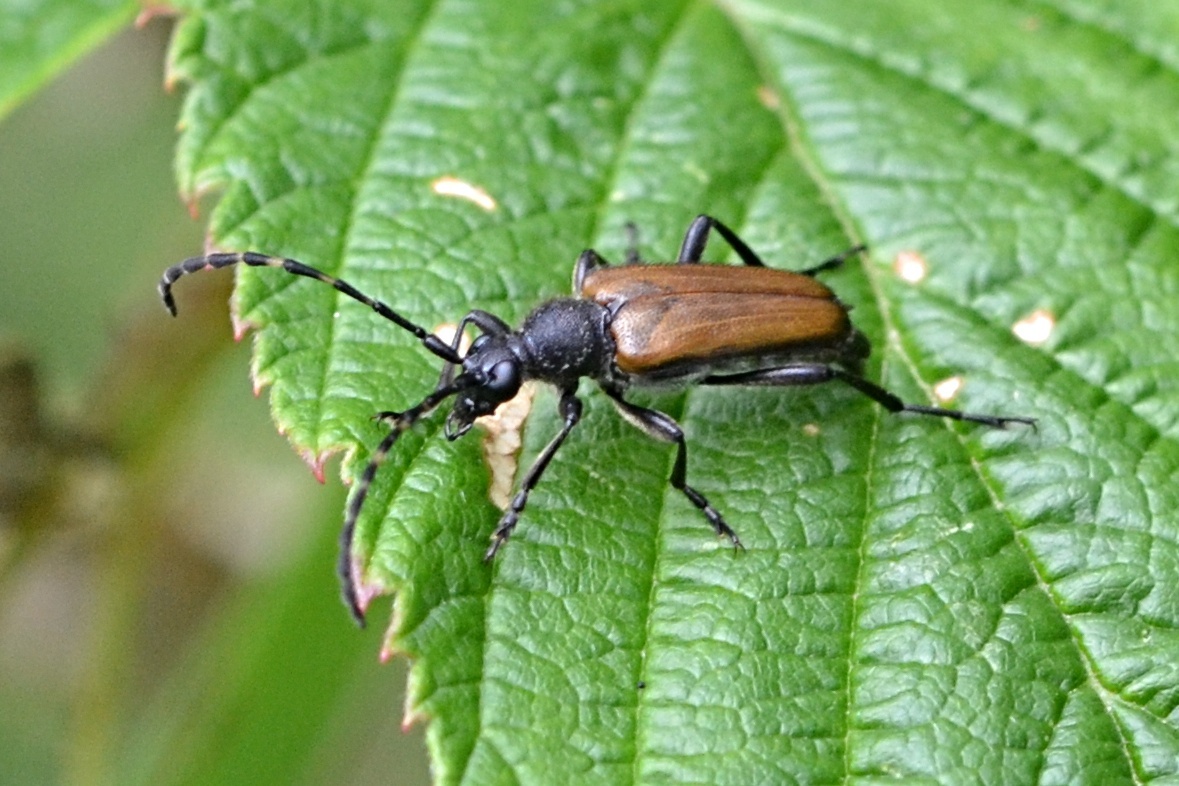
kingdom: Animalia
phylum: Arthropoda
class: Insecta
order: Coleoptera
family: Cerambycidae
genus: Paracorymbia
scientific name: Paracorymbia maculicornis
